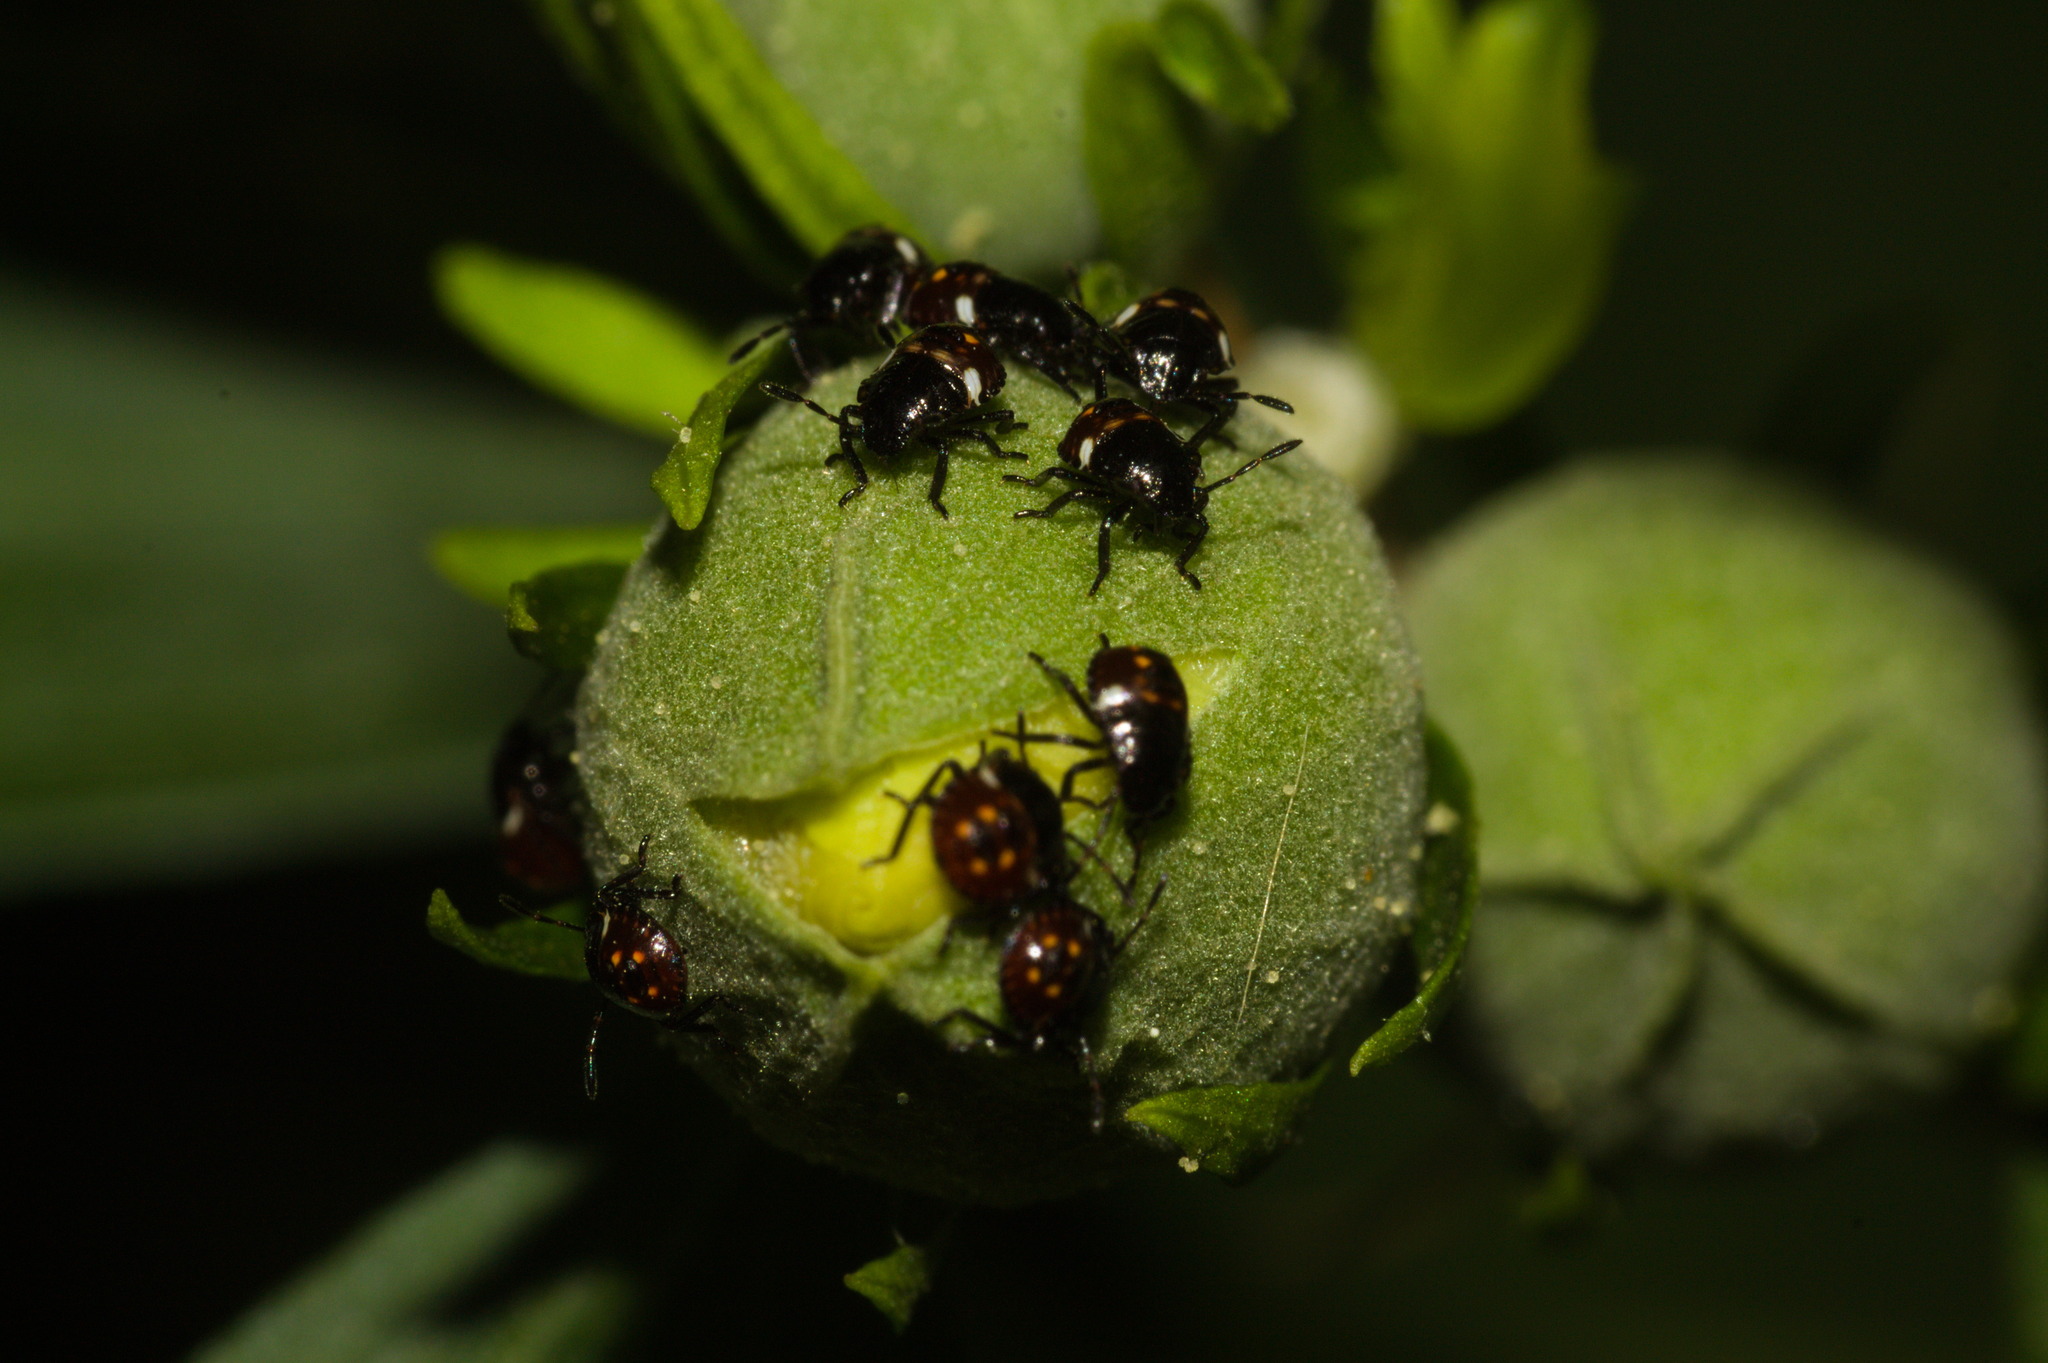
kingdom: Animalia
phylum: Arthropoda
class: Insecta
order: Hemiptera
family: Pentatomidae
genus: Nezara
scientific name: Nezara viridula
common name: Southern green stink bug
